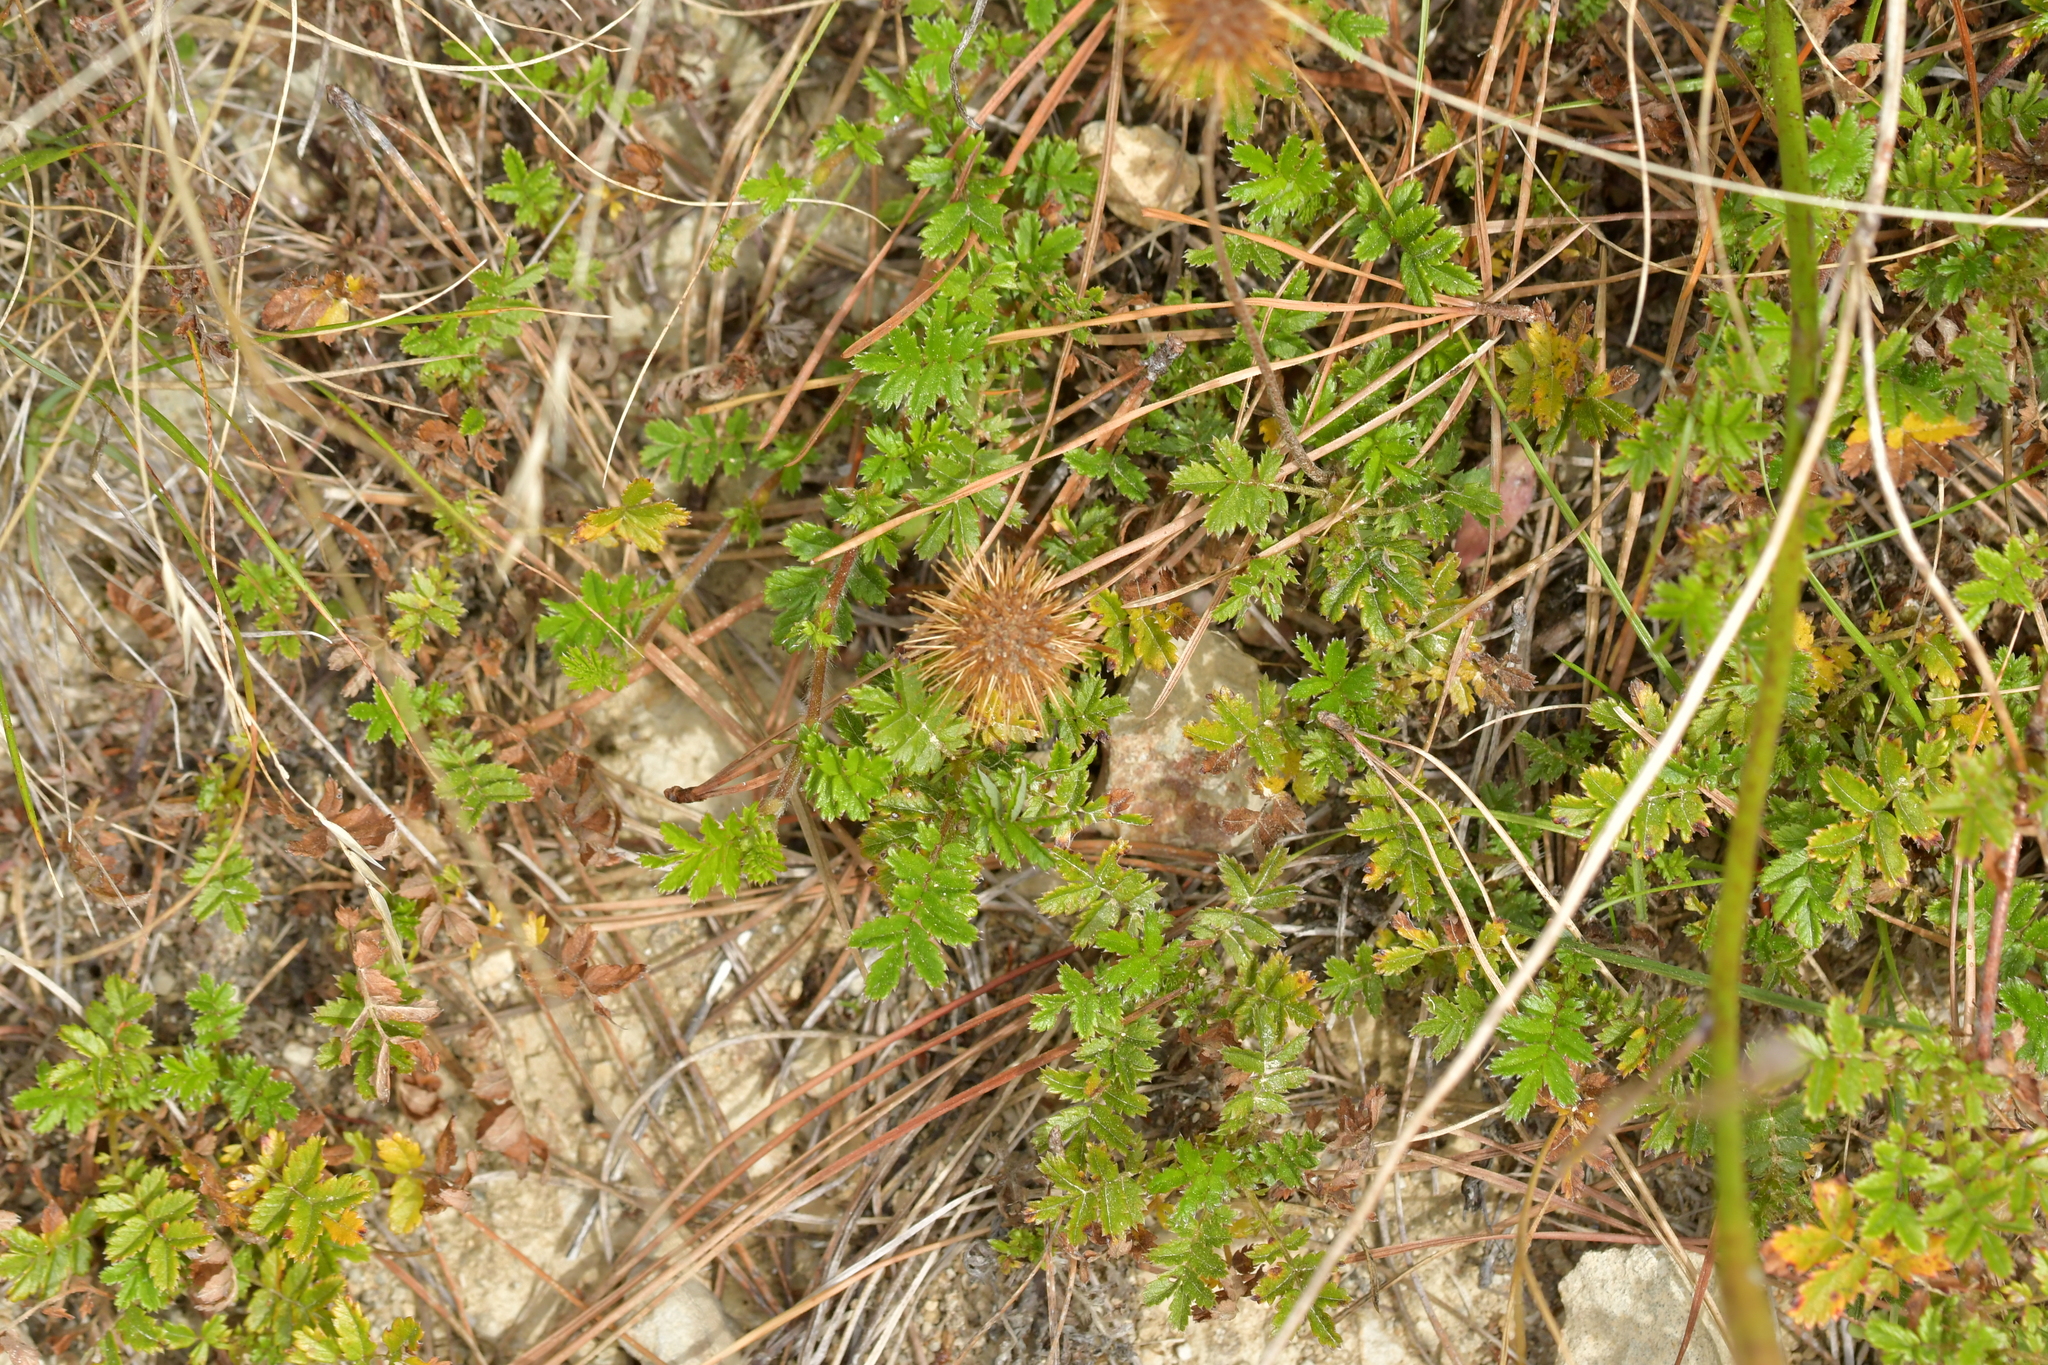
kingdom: Plantae
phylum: Tracheophyta
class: Magnoliopsida
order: Rosales
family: Rosaceae
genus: Acaena
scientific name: Acaena novae-zelandiae
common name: Pirri-pirri-bur
